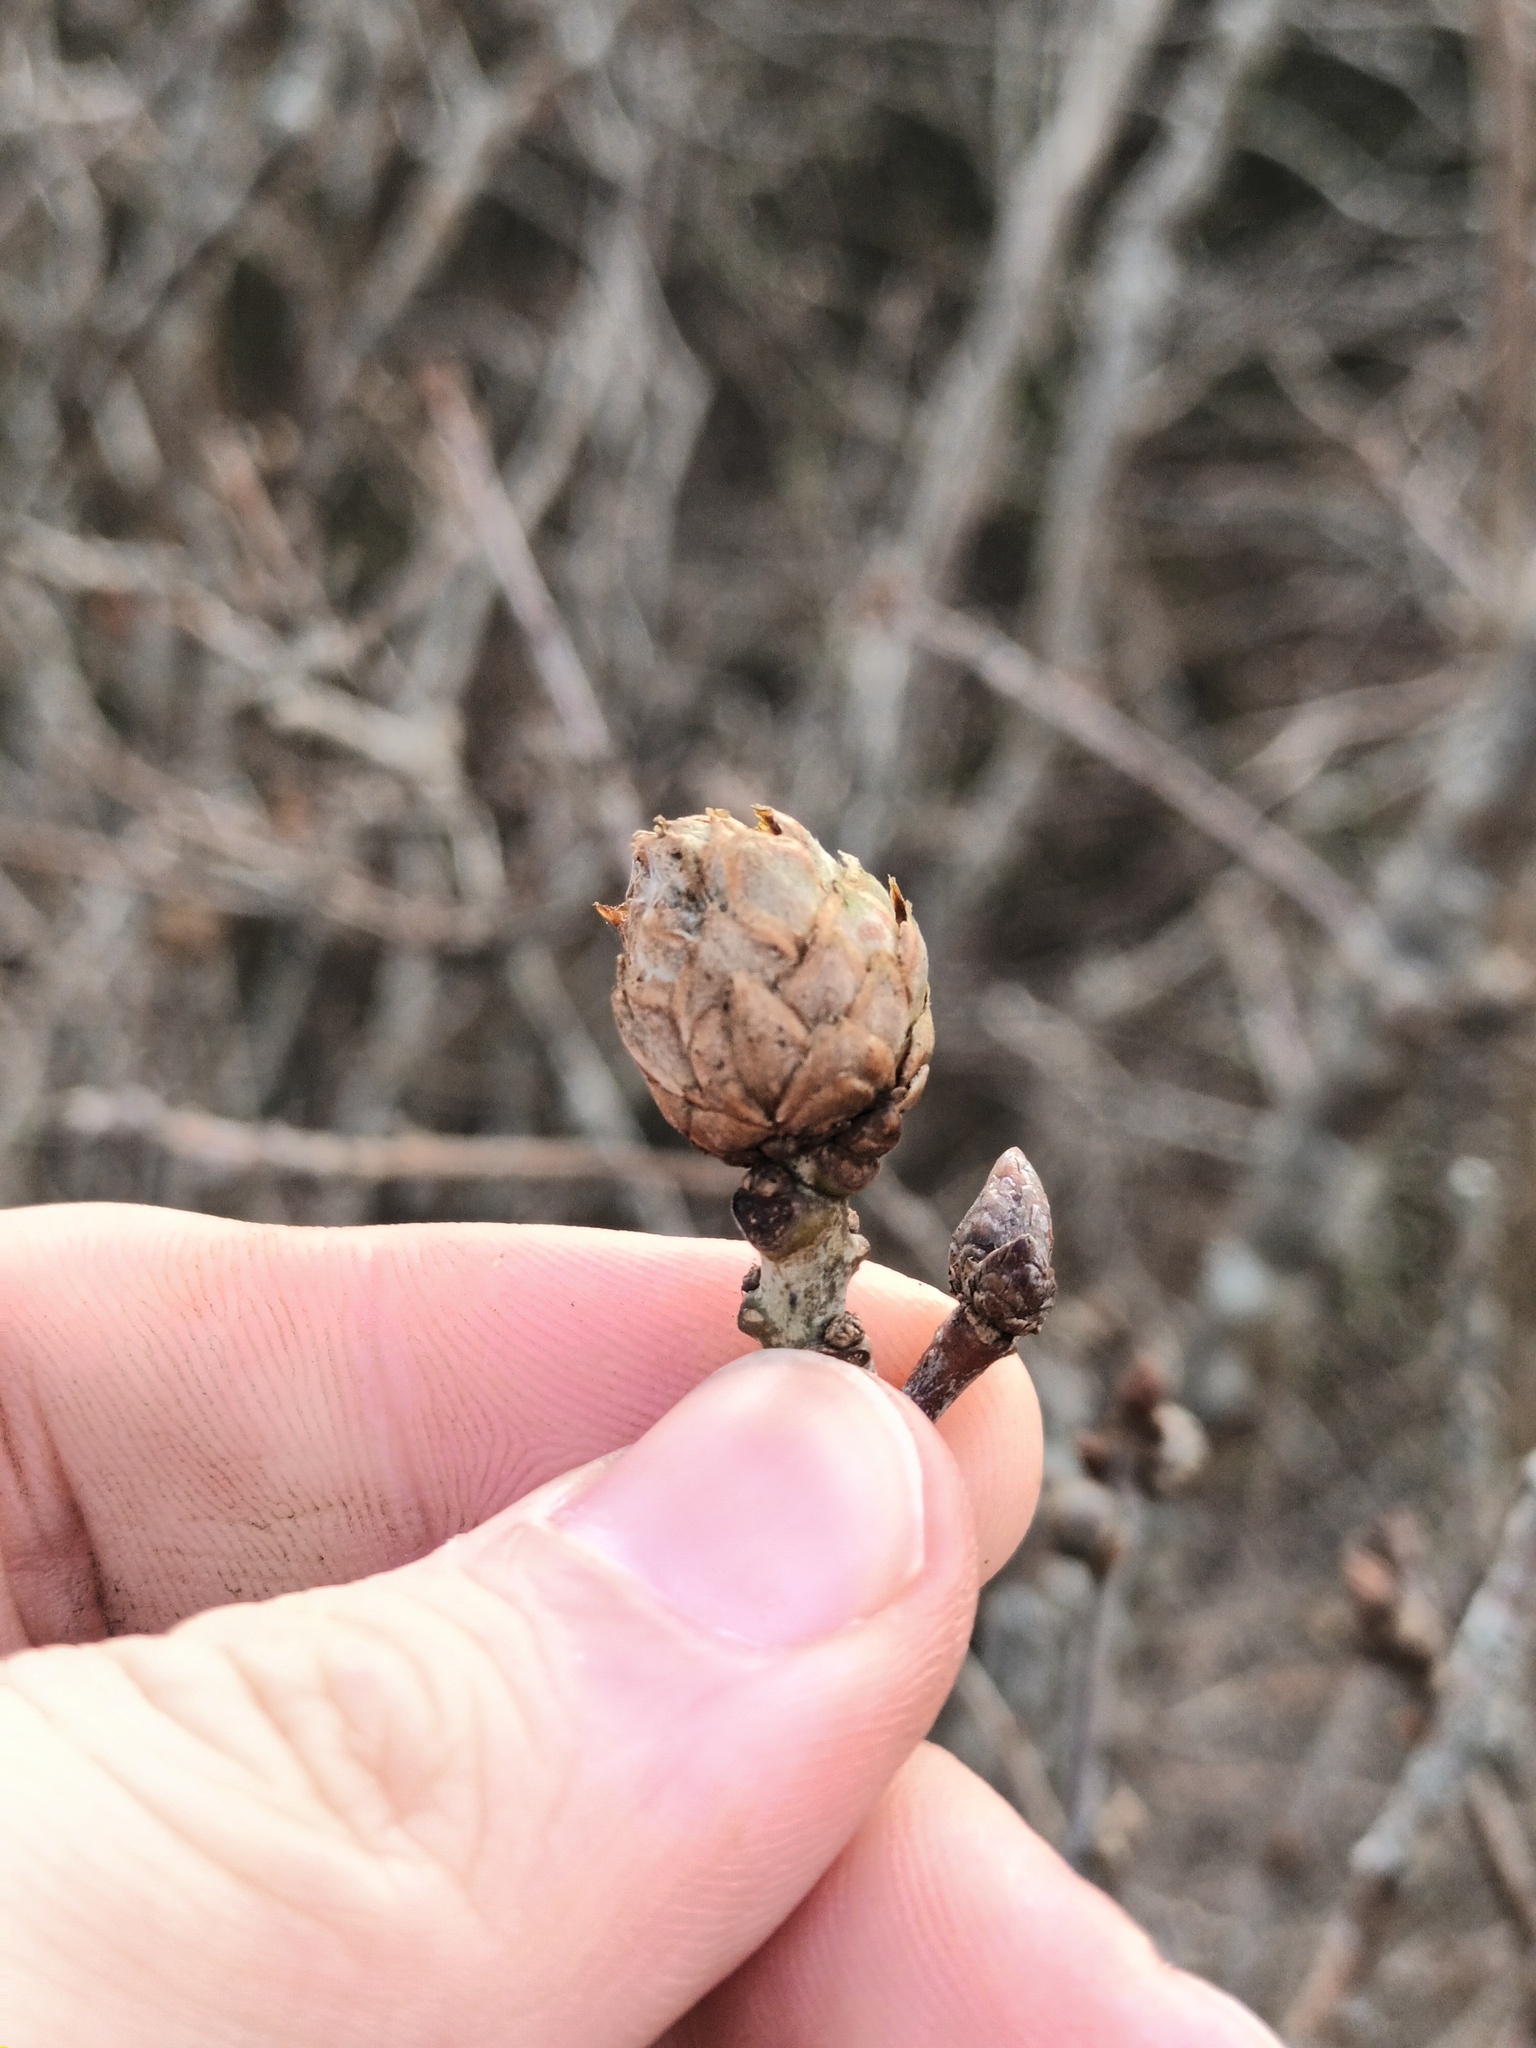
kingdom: Animalia
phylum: Arthropoda
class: Insecta
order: Hymenoptera
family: Cynipidae
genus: Andricus
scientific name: Andricus foecundatrix
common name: Artichoke gall
